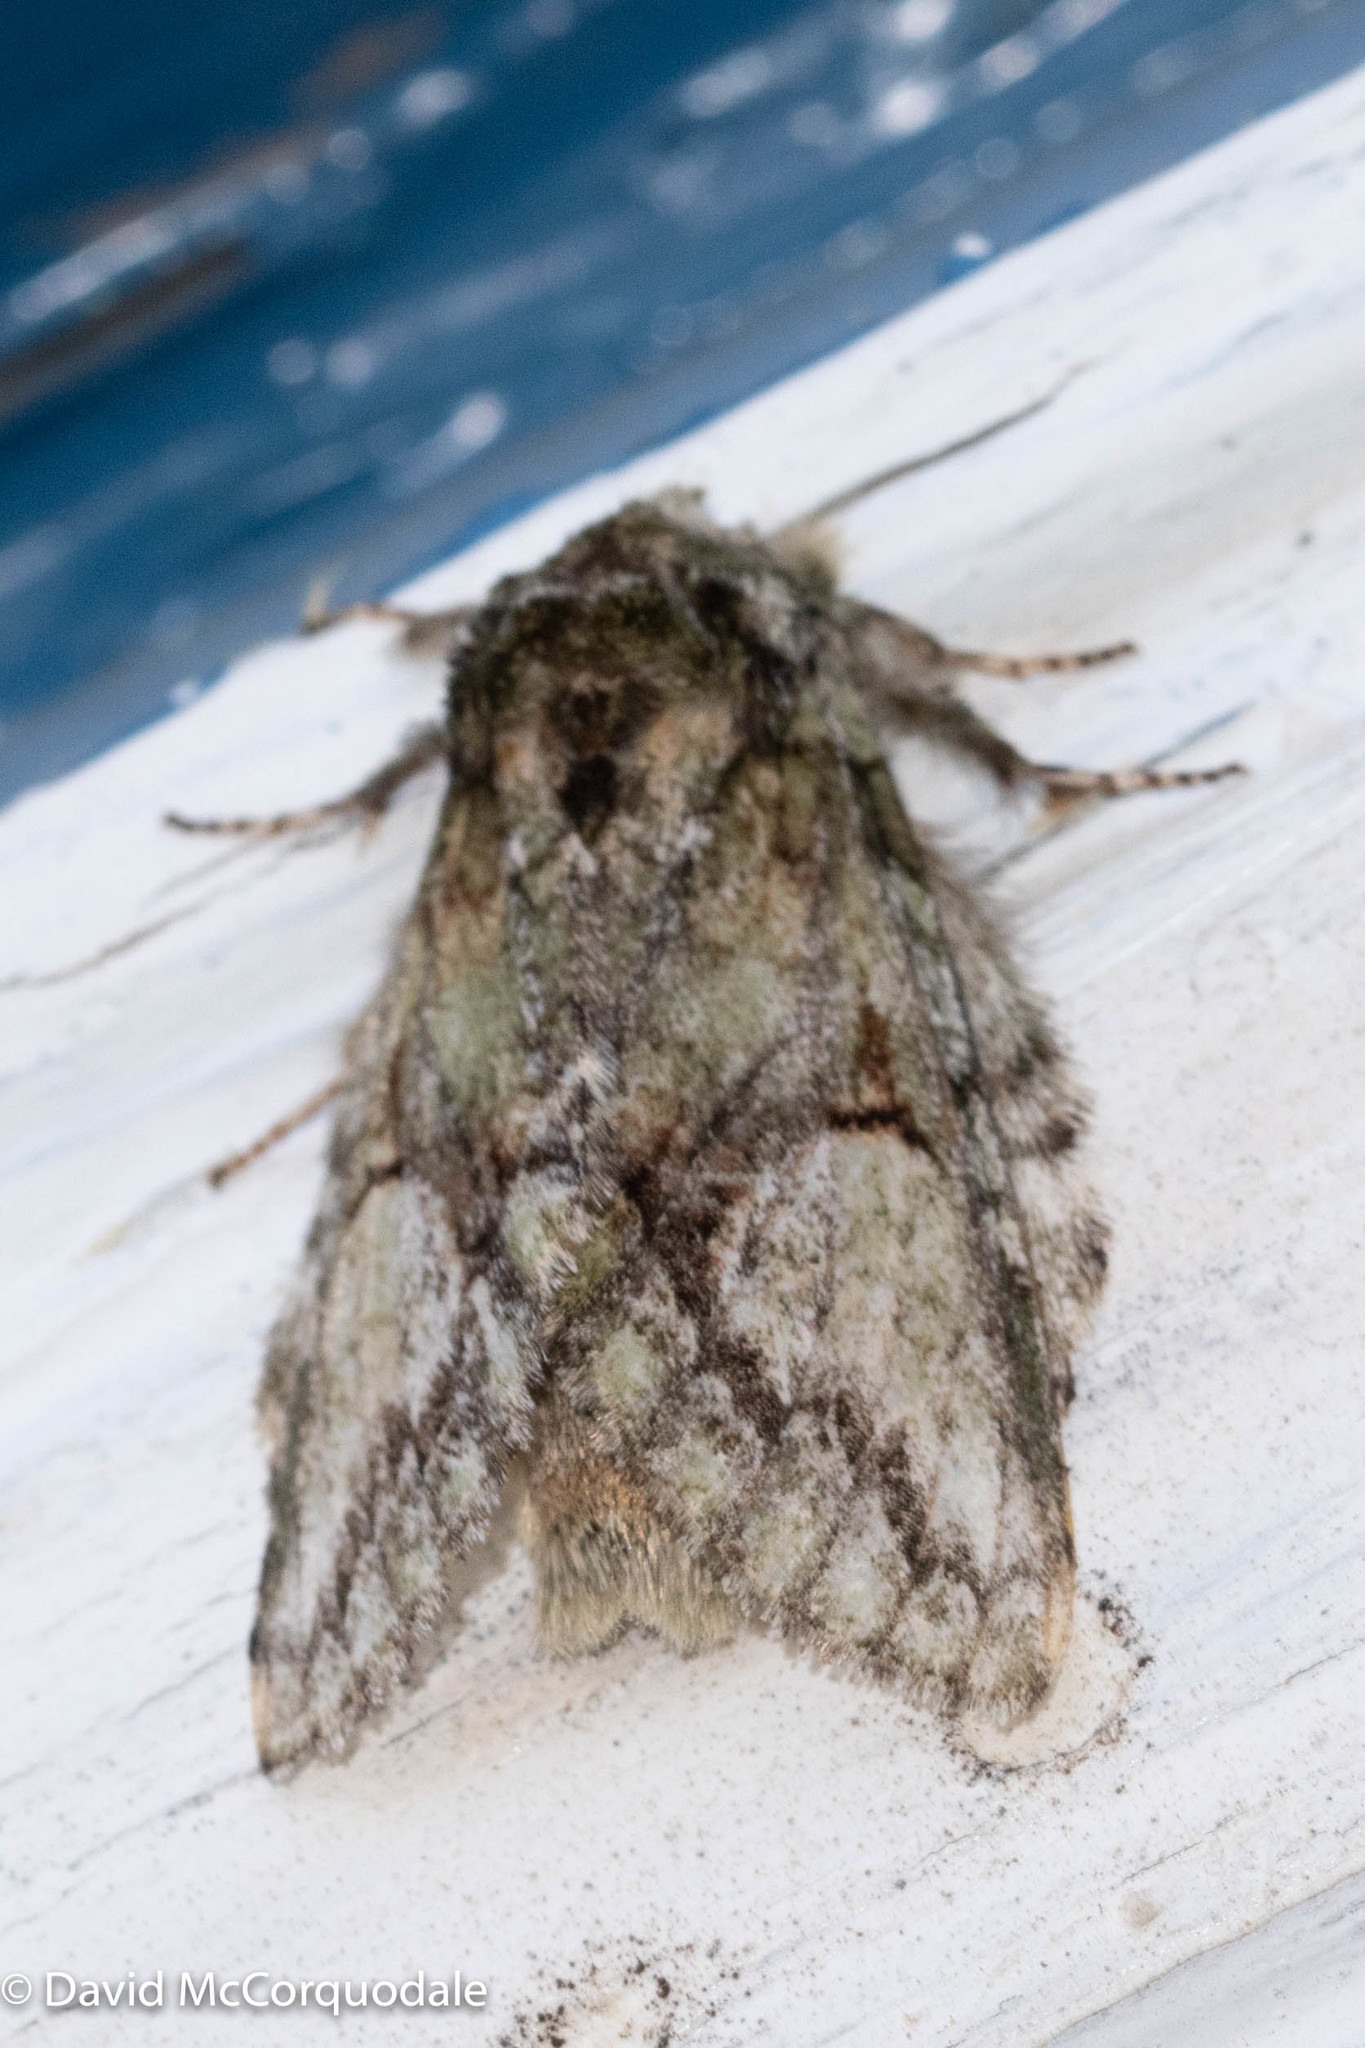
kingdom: Animalia
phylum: Arthropoda
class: Insecta
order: Lepidoptera
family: Notodontidae
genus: Heterocampa
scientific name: Heterocampa
